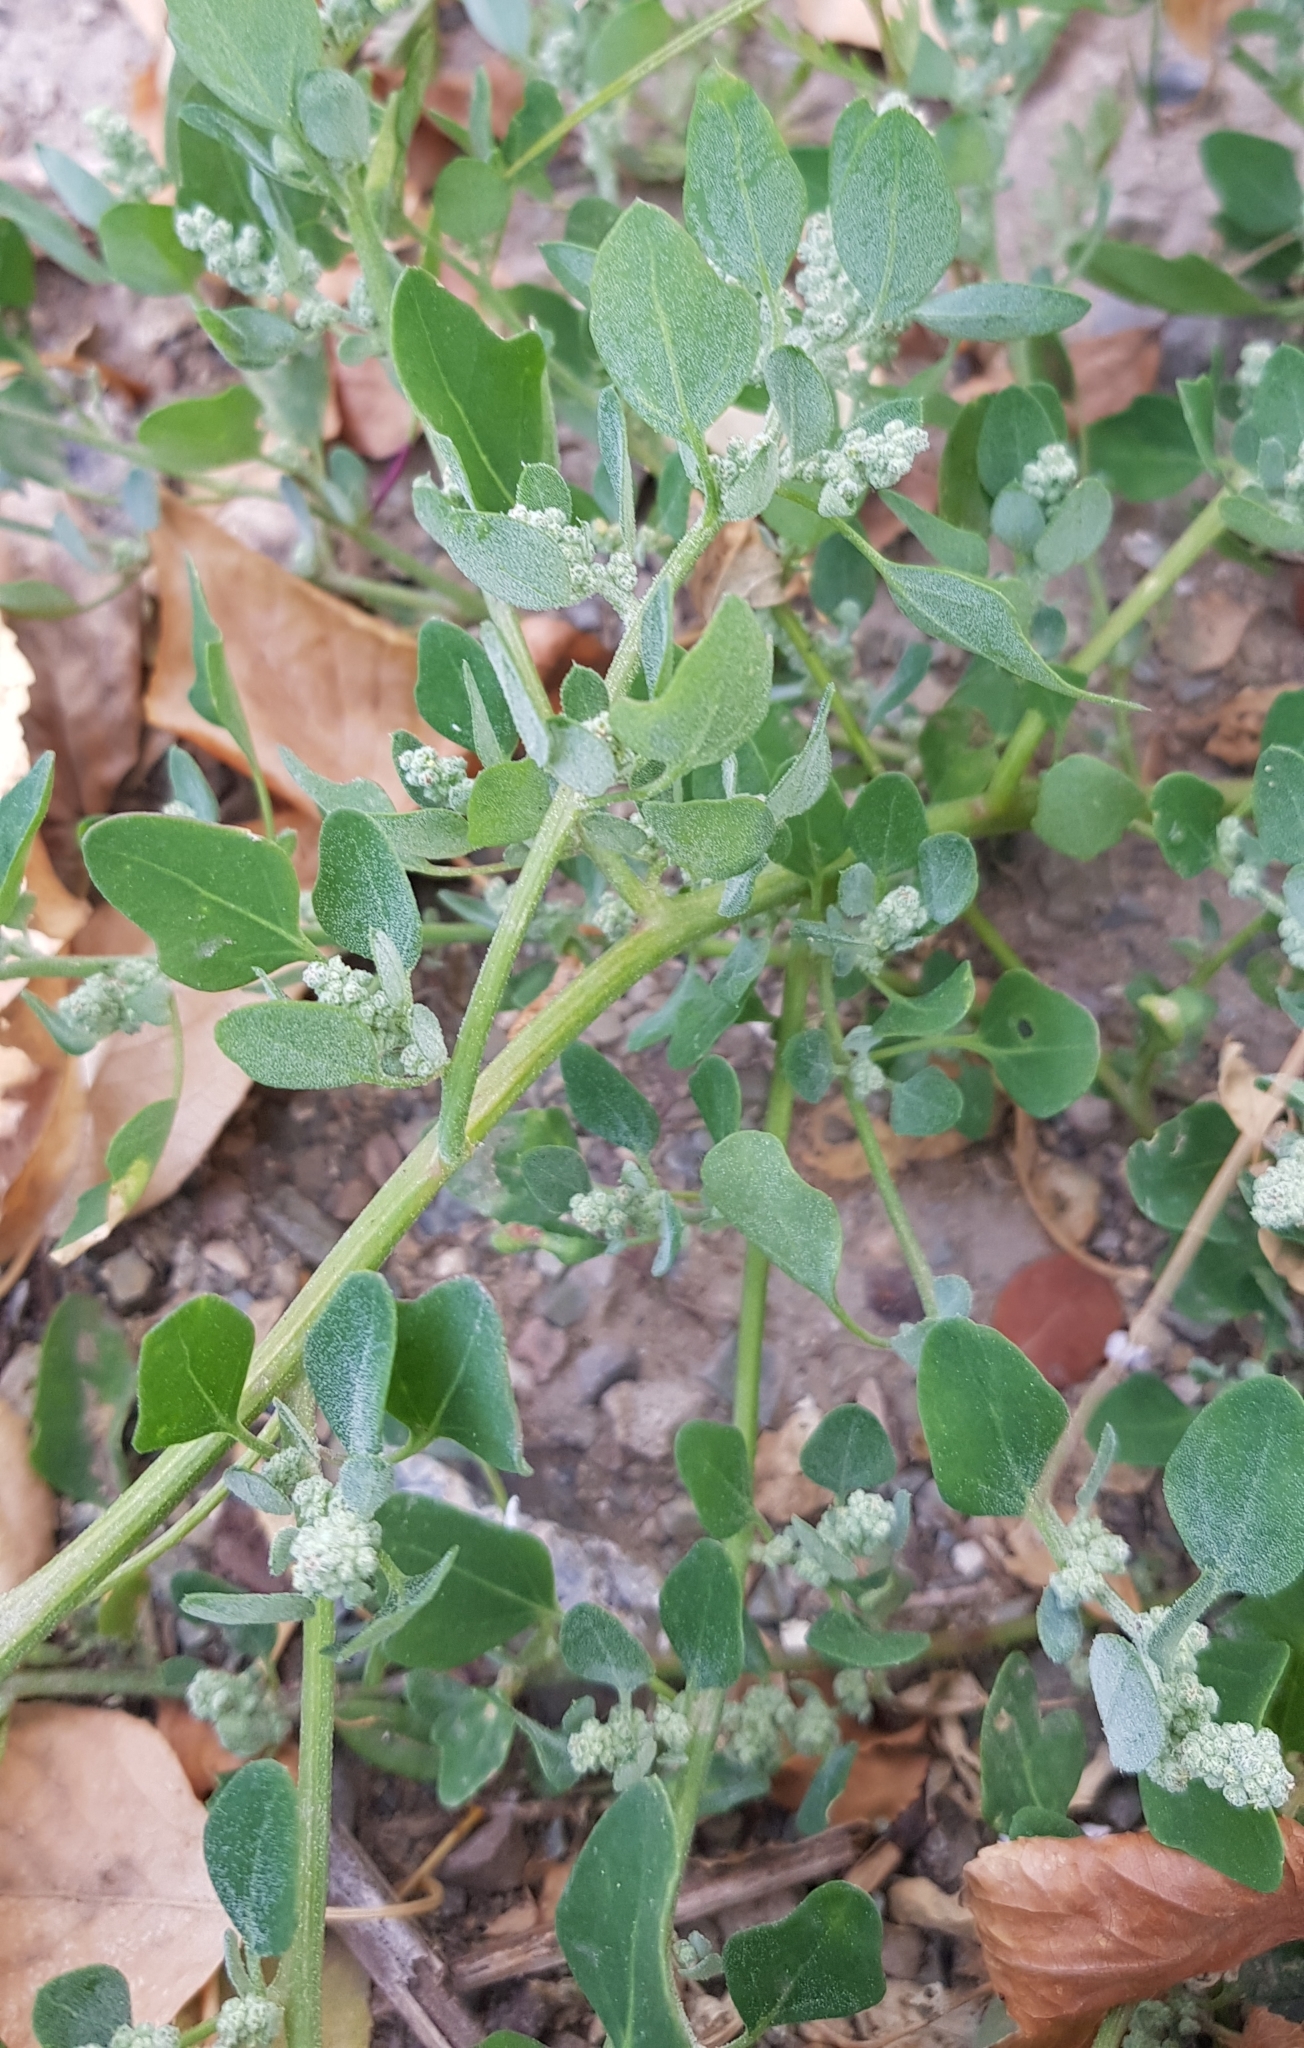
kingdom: Plantae
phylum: Tracheophyta
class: Magnoliopsida
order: Caryophyllales
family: Amaranthaceae
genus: Chenopodium
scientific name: Chenopodium karoi
